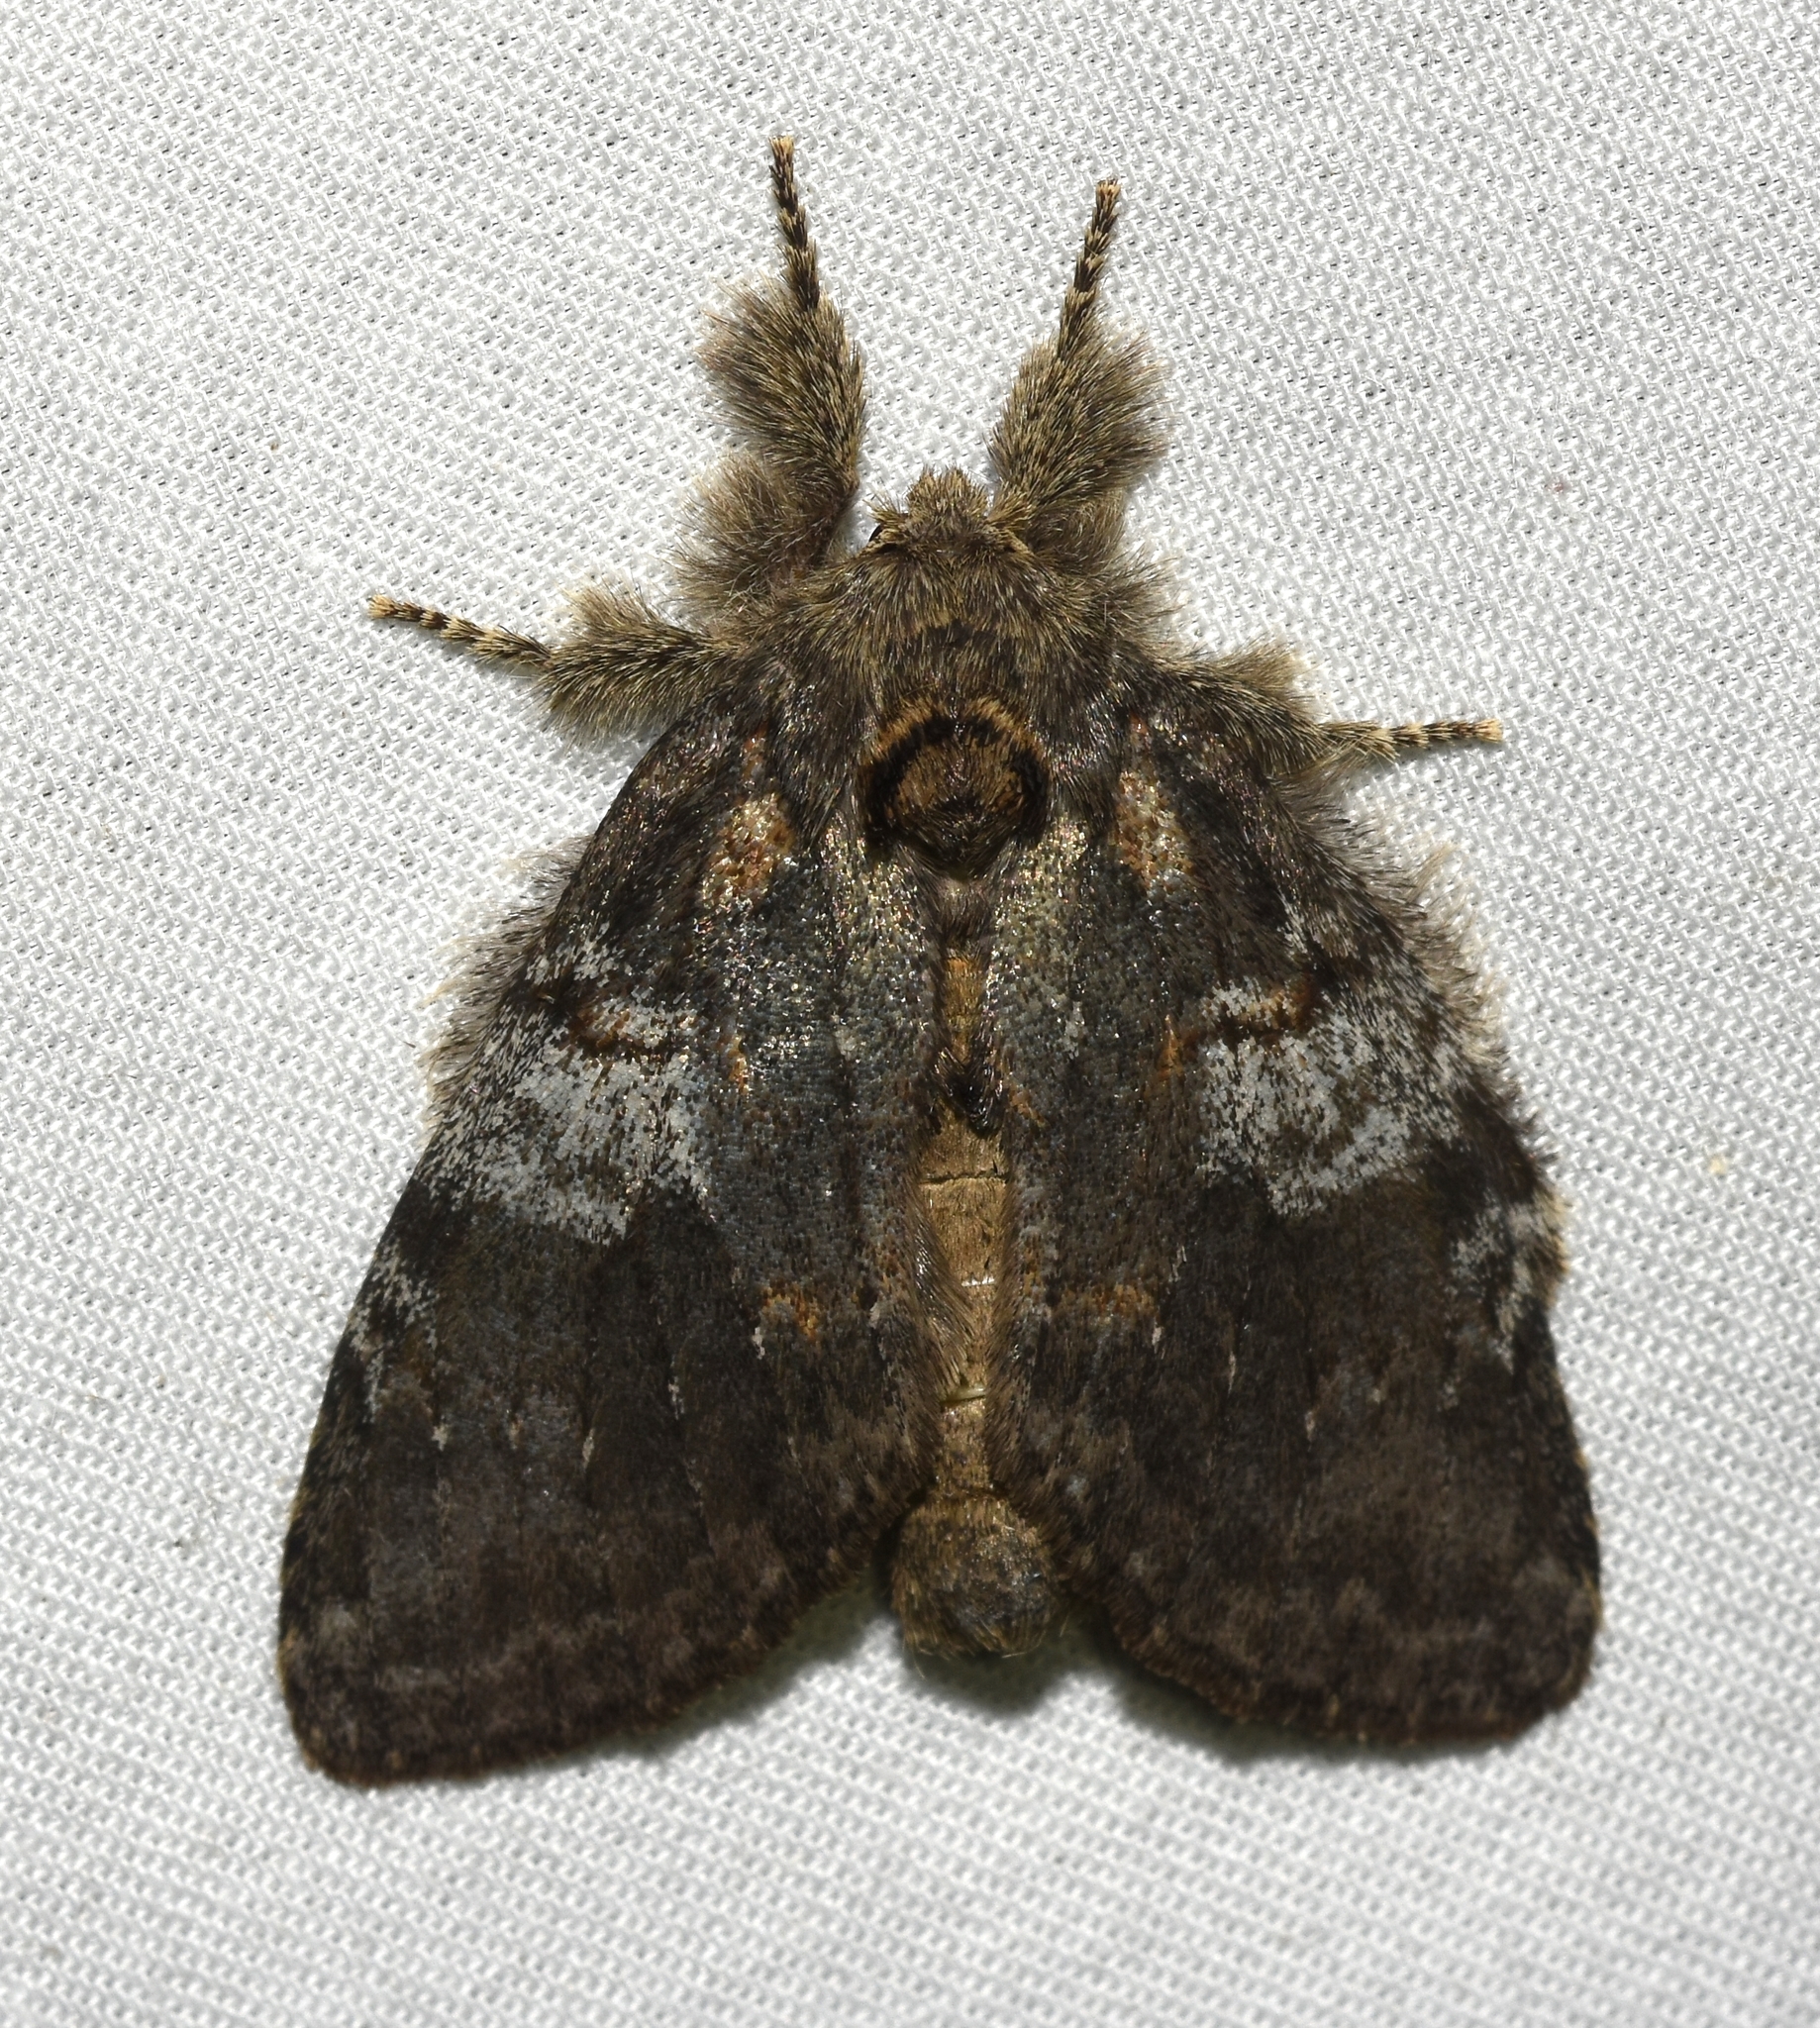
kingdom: Animalia
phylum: Arthropoda
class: Insecta
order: Lepidoptera
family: Notodontidae
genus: Peridea
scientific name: Peridea angulosa
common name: Angulose prominent
